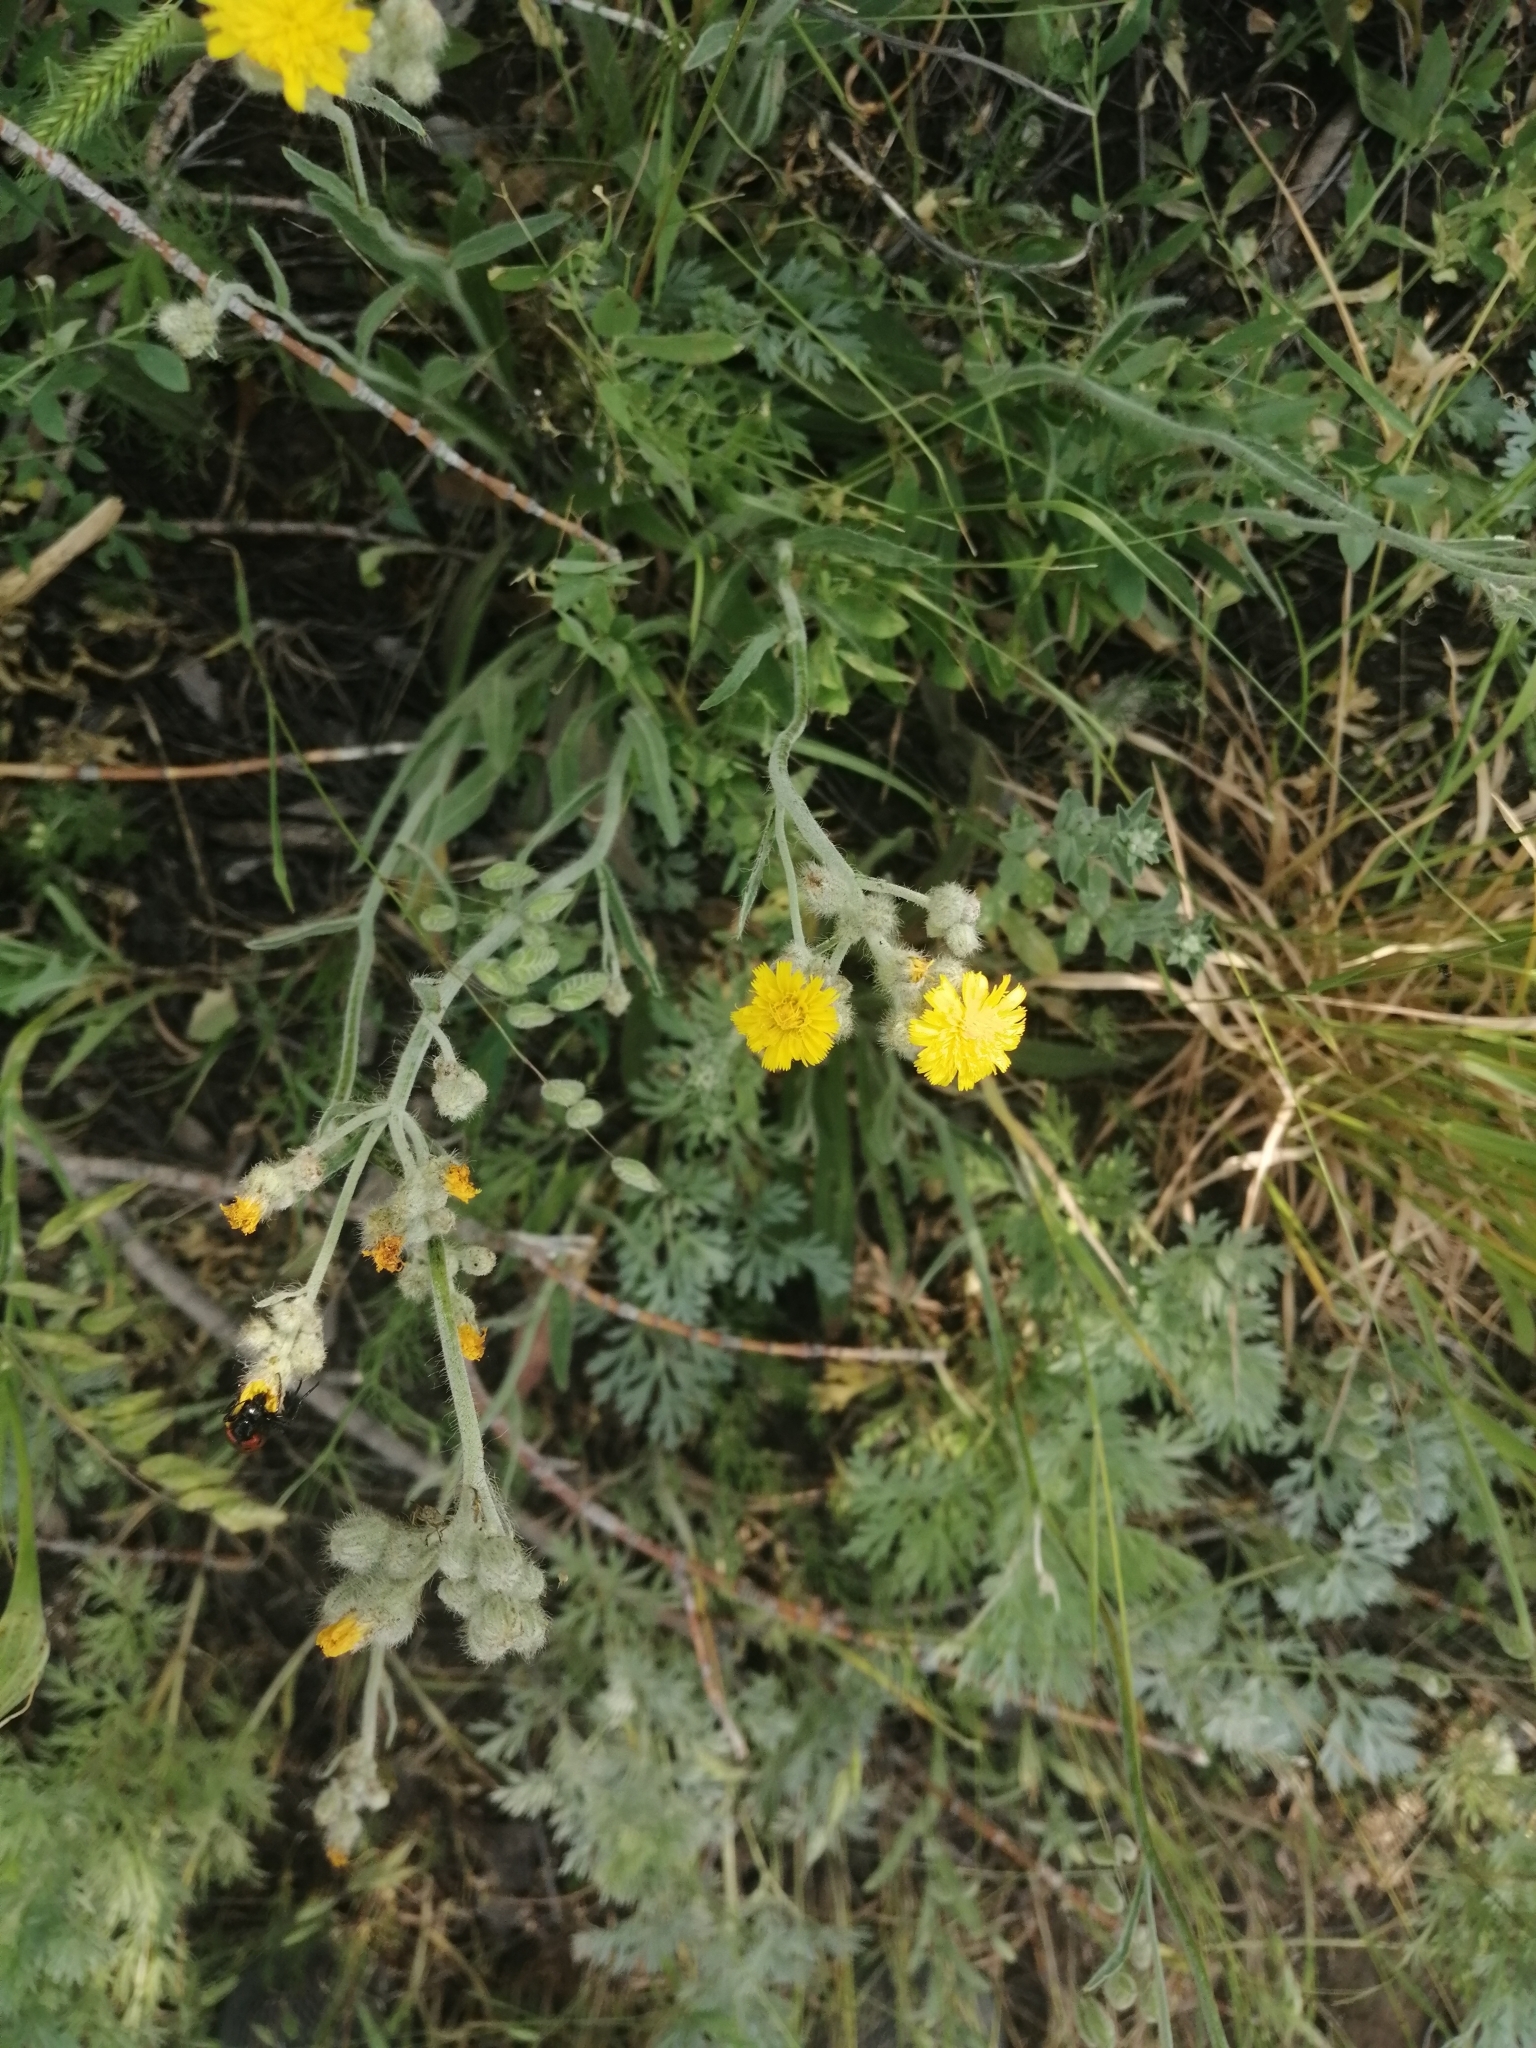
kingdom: Plantae
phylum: Tracheophyta
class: Magnoliopsida
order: Asterales
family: Asteraceae
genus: Pilosella
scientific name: Pilosella echioides
